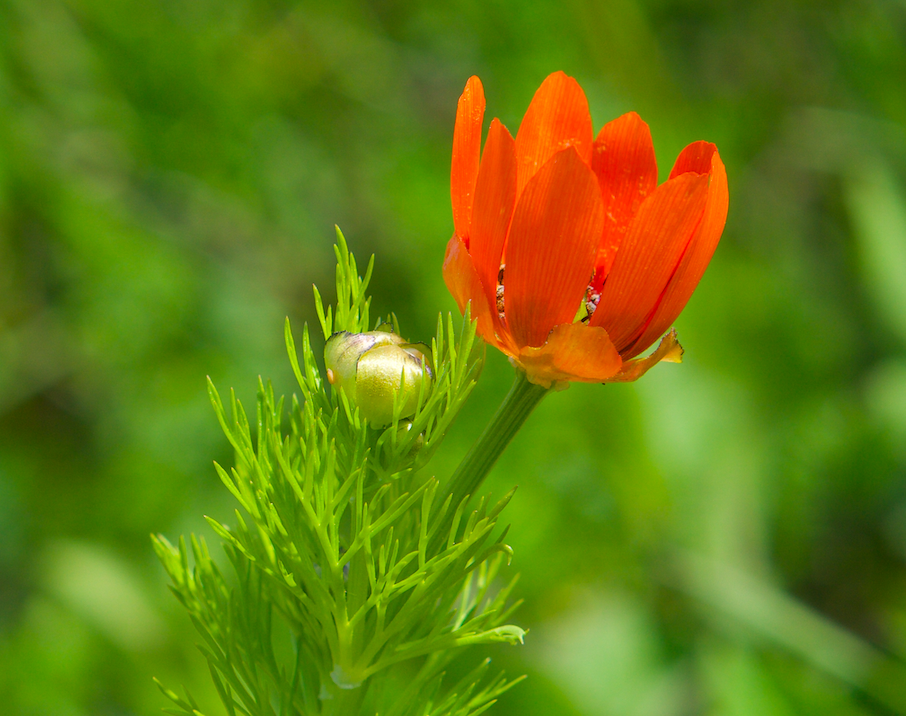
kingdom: Plantae
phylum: Tracheophyta
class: Magnoliopsida
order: Ranunculales
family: Ranunculaceae
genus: Adonis
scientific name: Adonis aestivalis
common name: Summer pheasant's-eye
